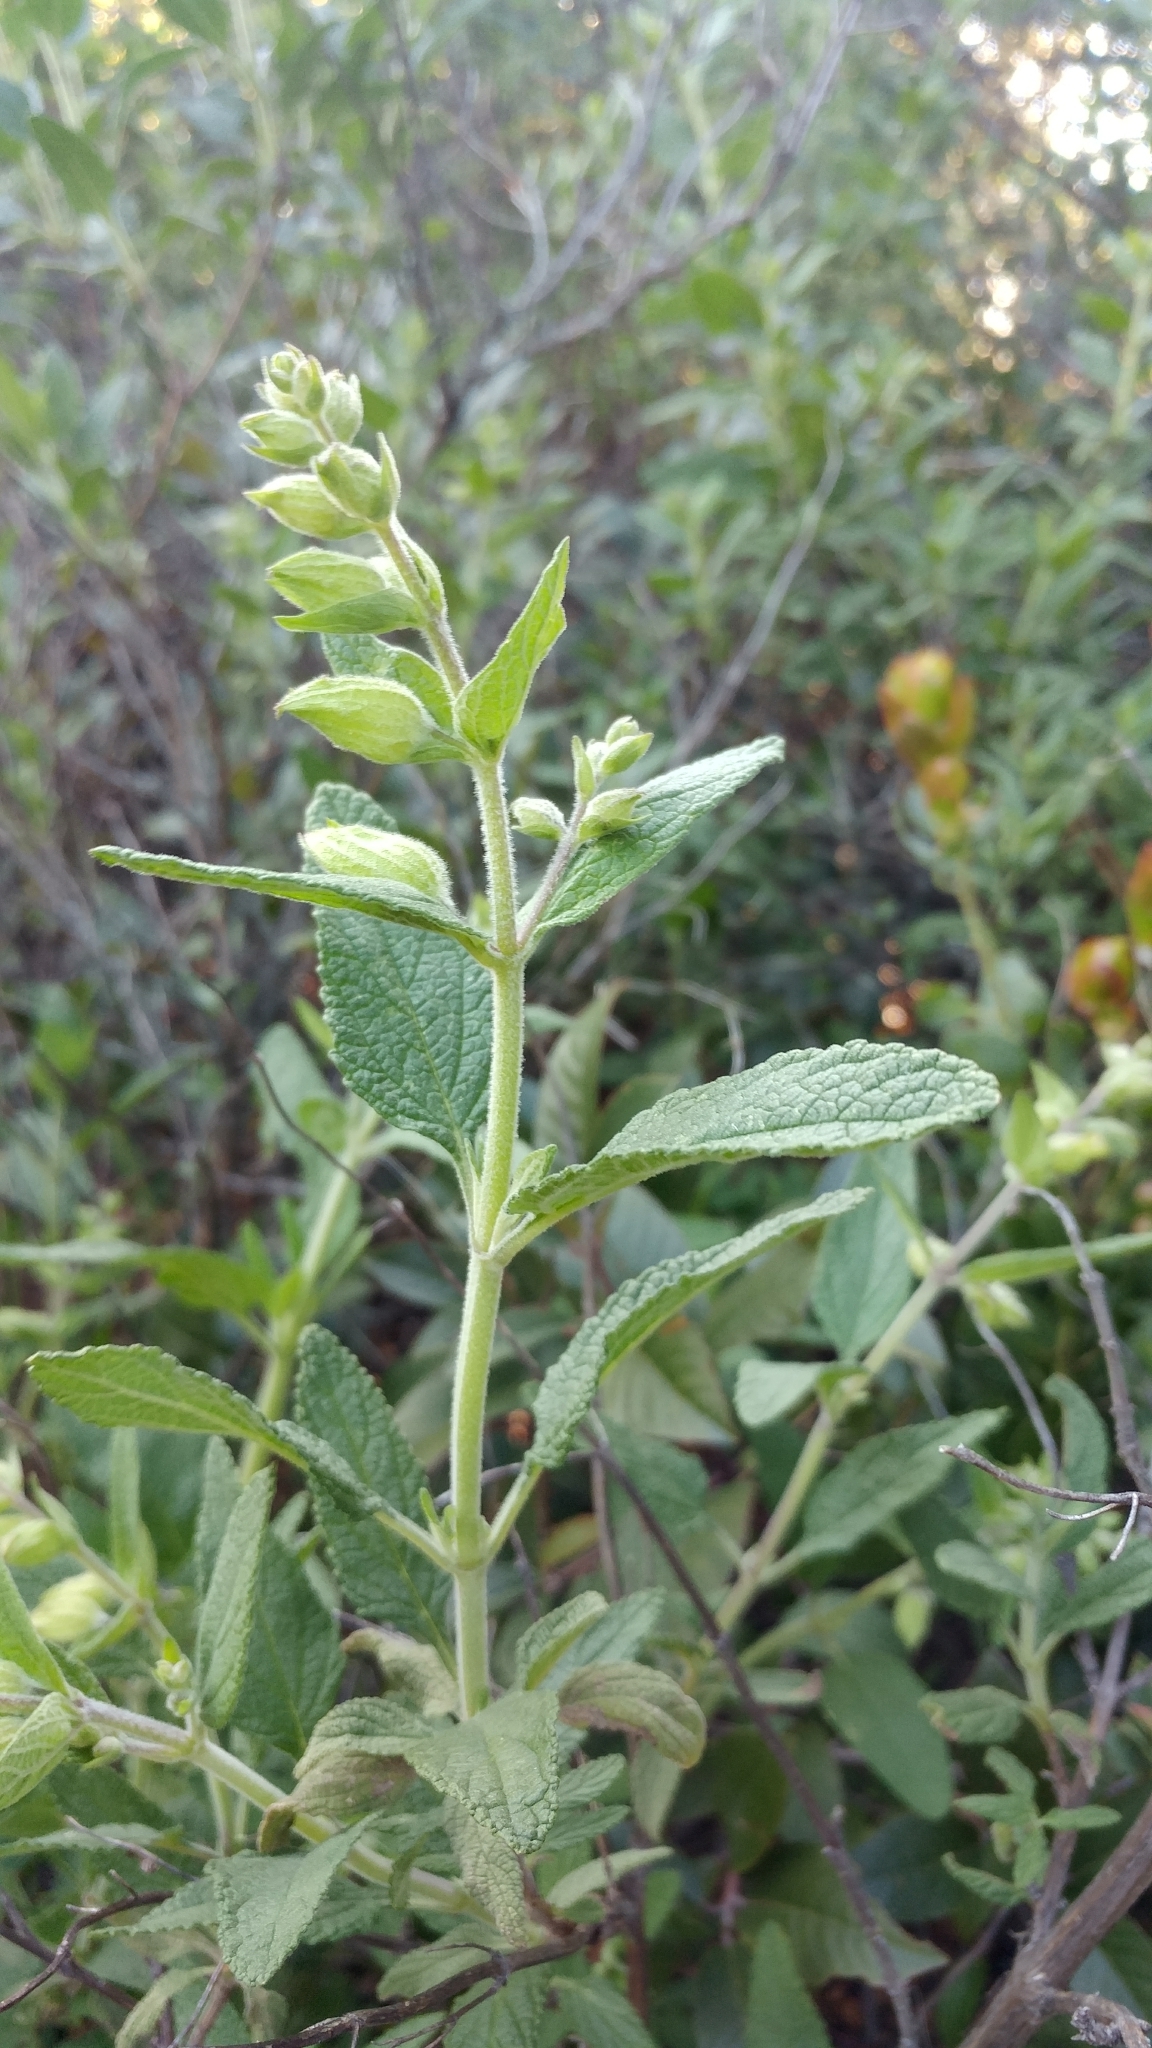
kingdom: Plantae
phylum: Tracheophyta
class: Magnoliopsida
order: Lamiales
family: Lamiaceae
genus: Lepechinia
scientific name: Lepechinia calycina
